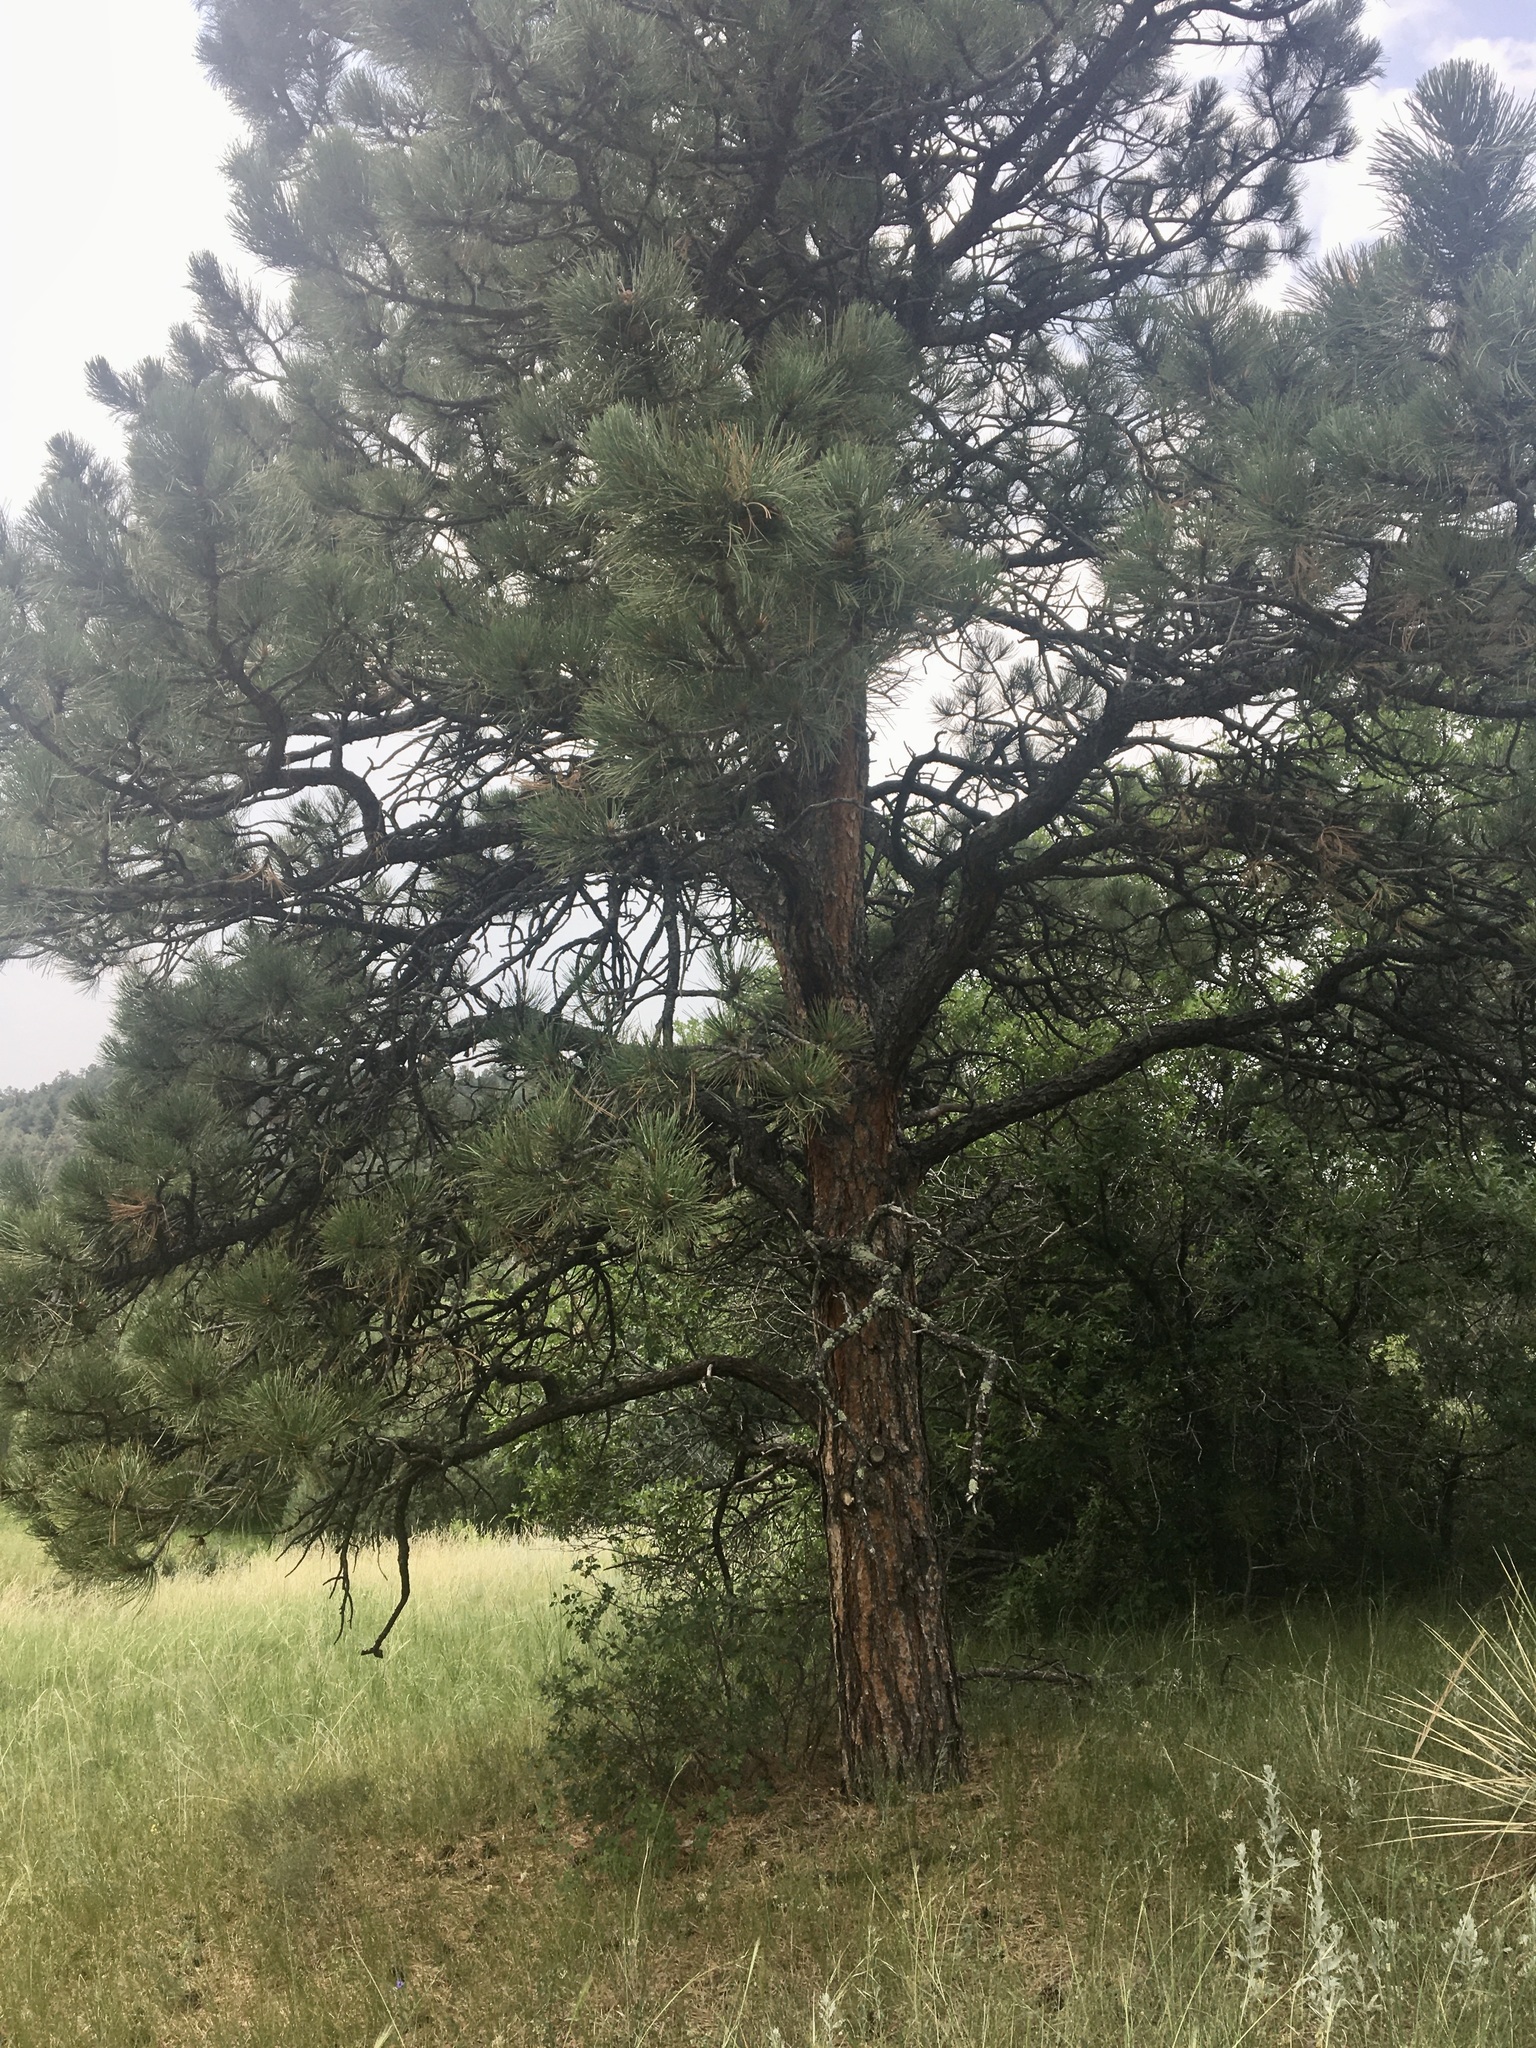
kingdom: Plantae
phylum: Tracheophyta
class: Pinopsida
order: Pinales
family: Pinaceae
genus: Pinus
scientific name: Pinus ponderosa
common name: Western yellow-pine
